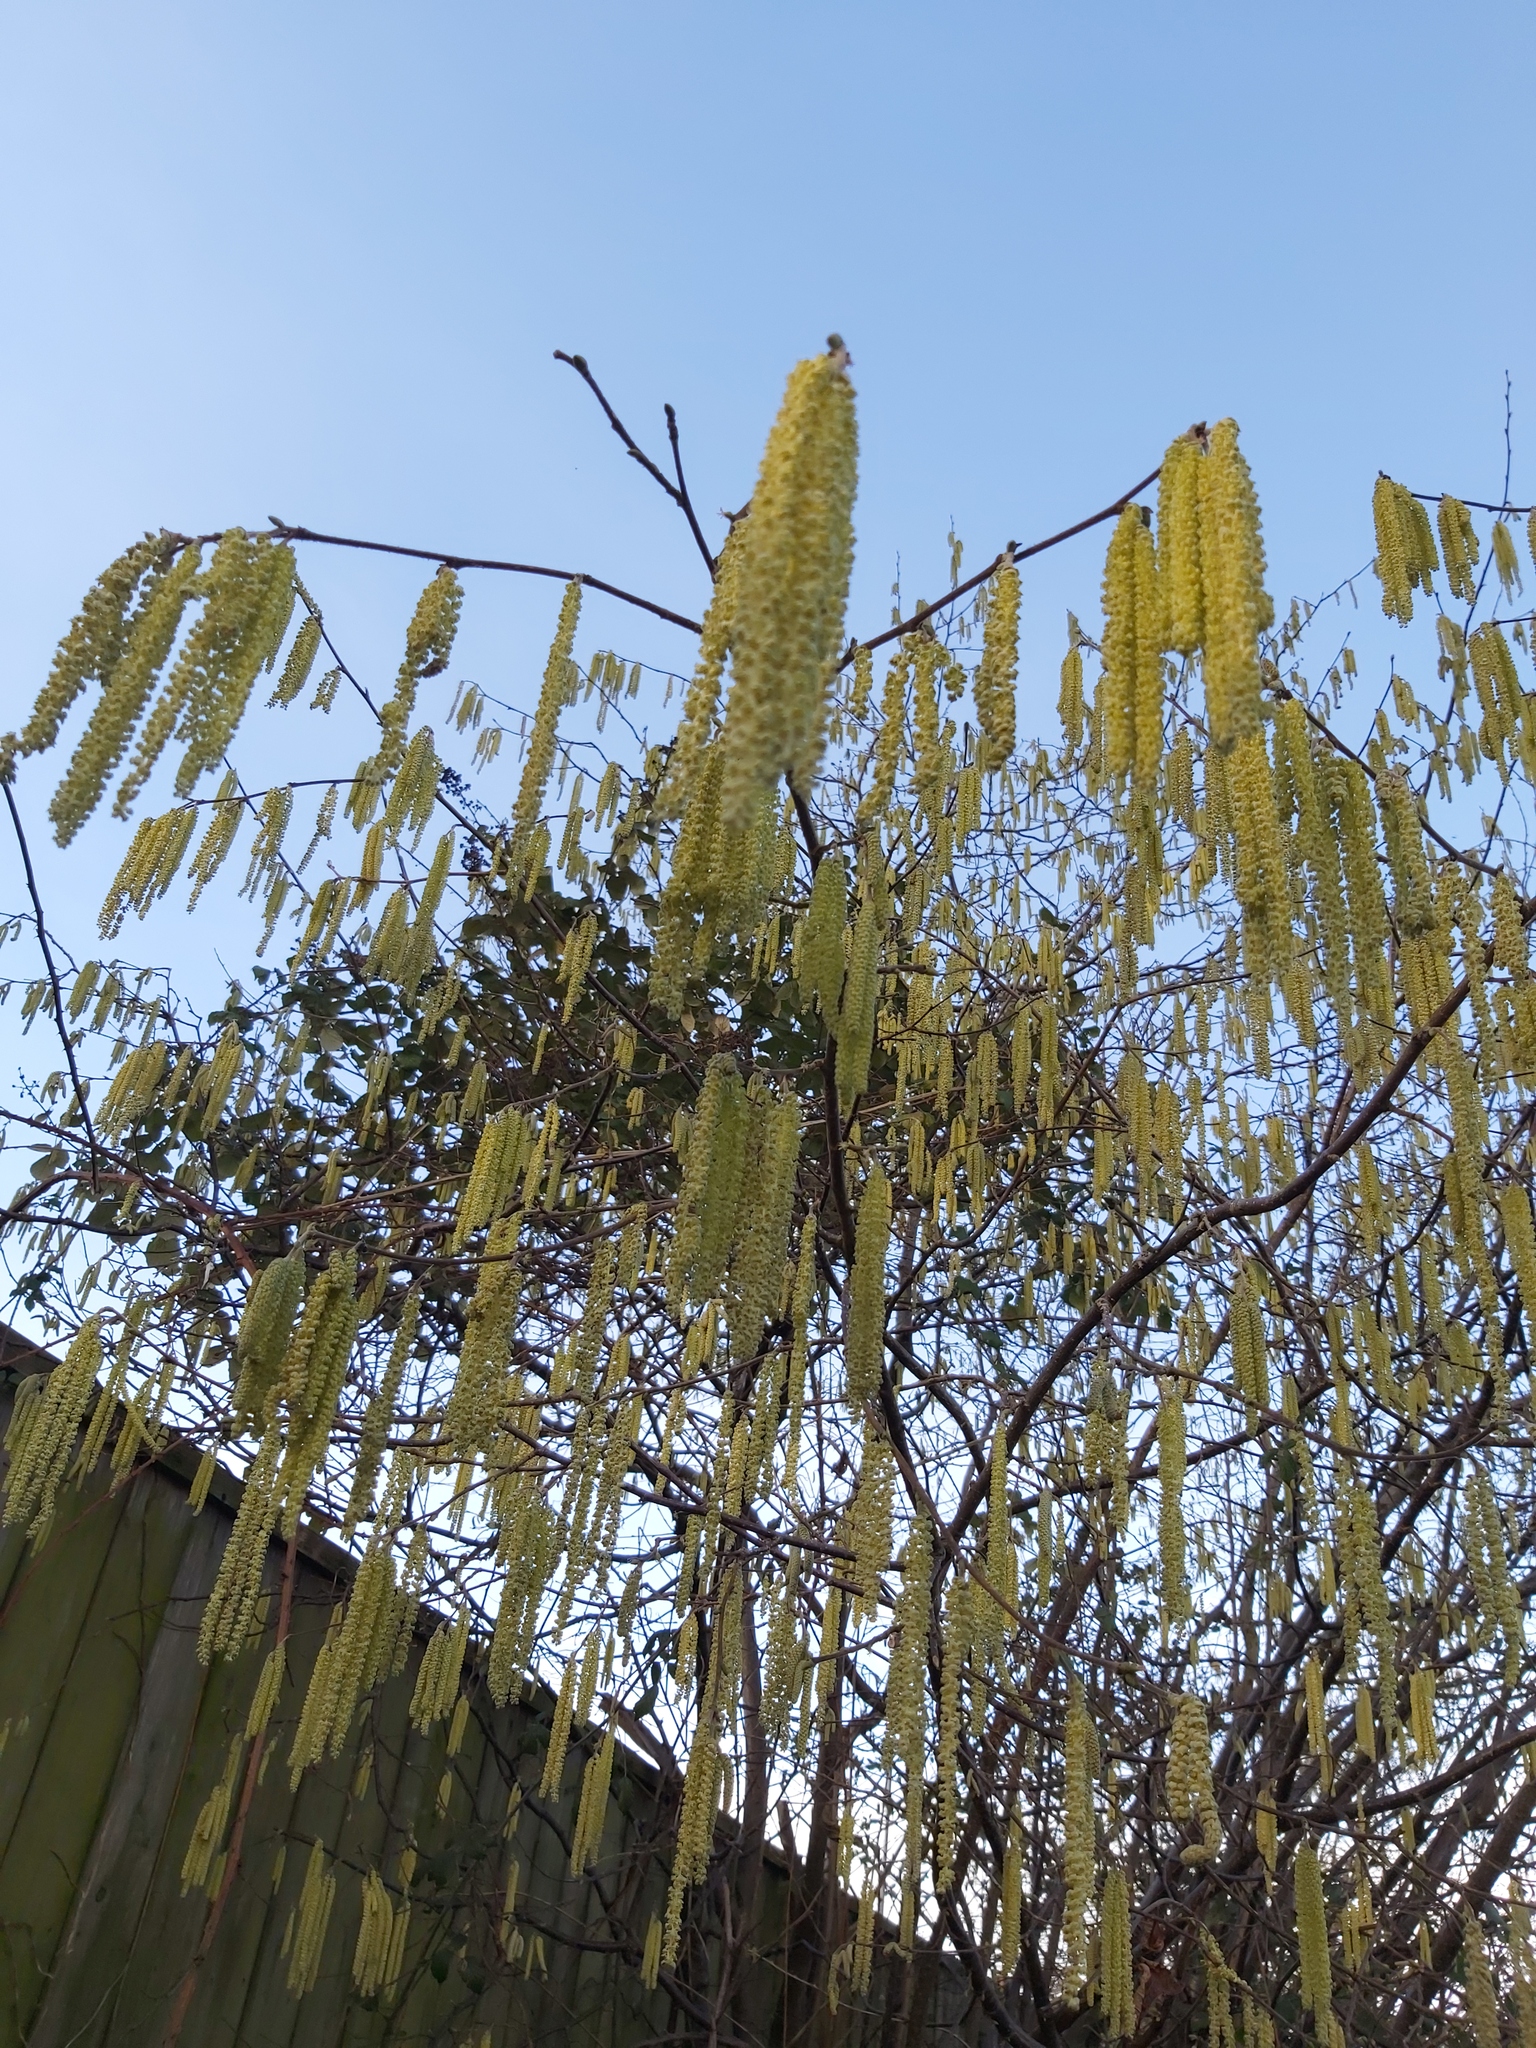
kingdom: Plantae
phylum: Tracheophyta
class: Magnoliopsida
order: Fagales
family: Betulaceae
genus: Corylus
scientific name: Corylus avellana
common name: European hazel
